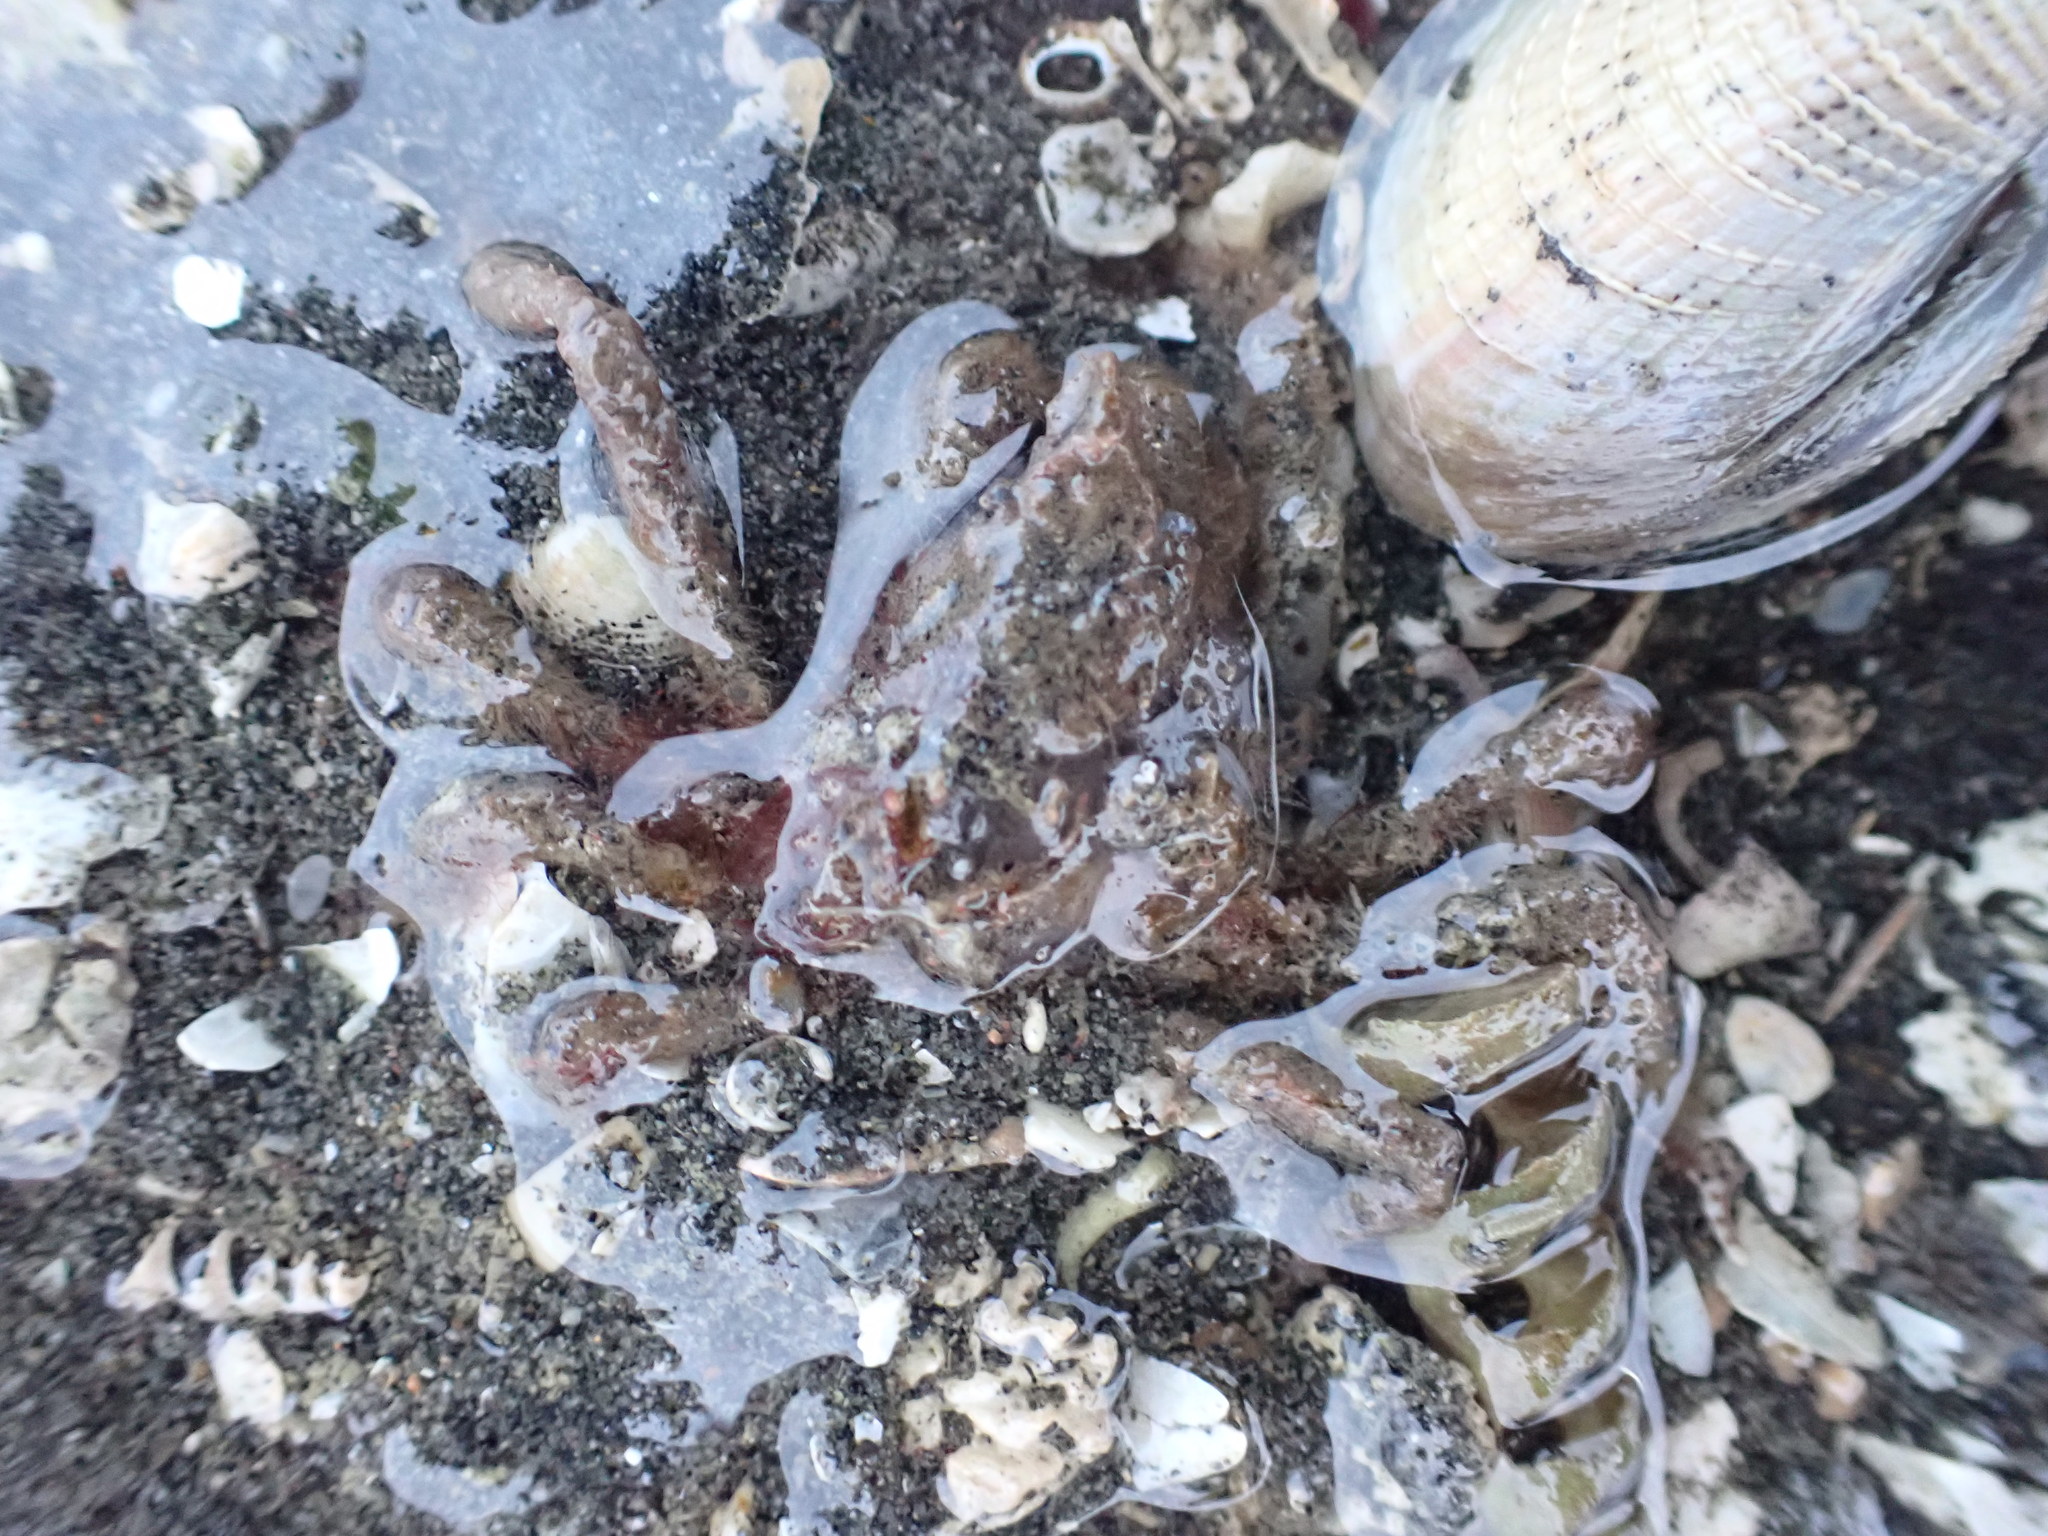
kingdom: Animalia
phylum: Arthropoda
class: Malacostraca
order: Decapoda
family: Inachoididae
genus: Pyromaia
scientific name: Pyromaia tuberculata
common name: Tuberculate pear crab
